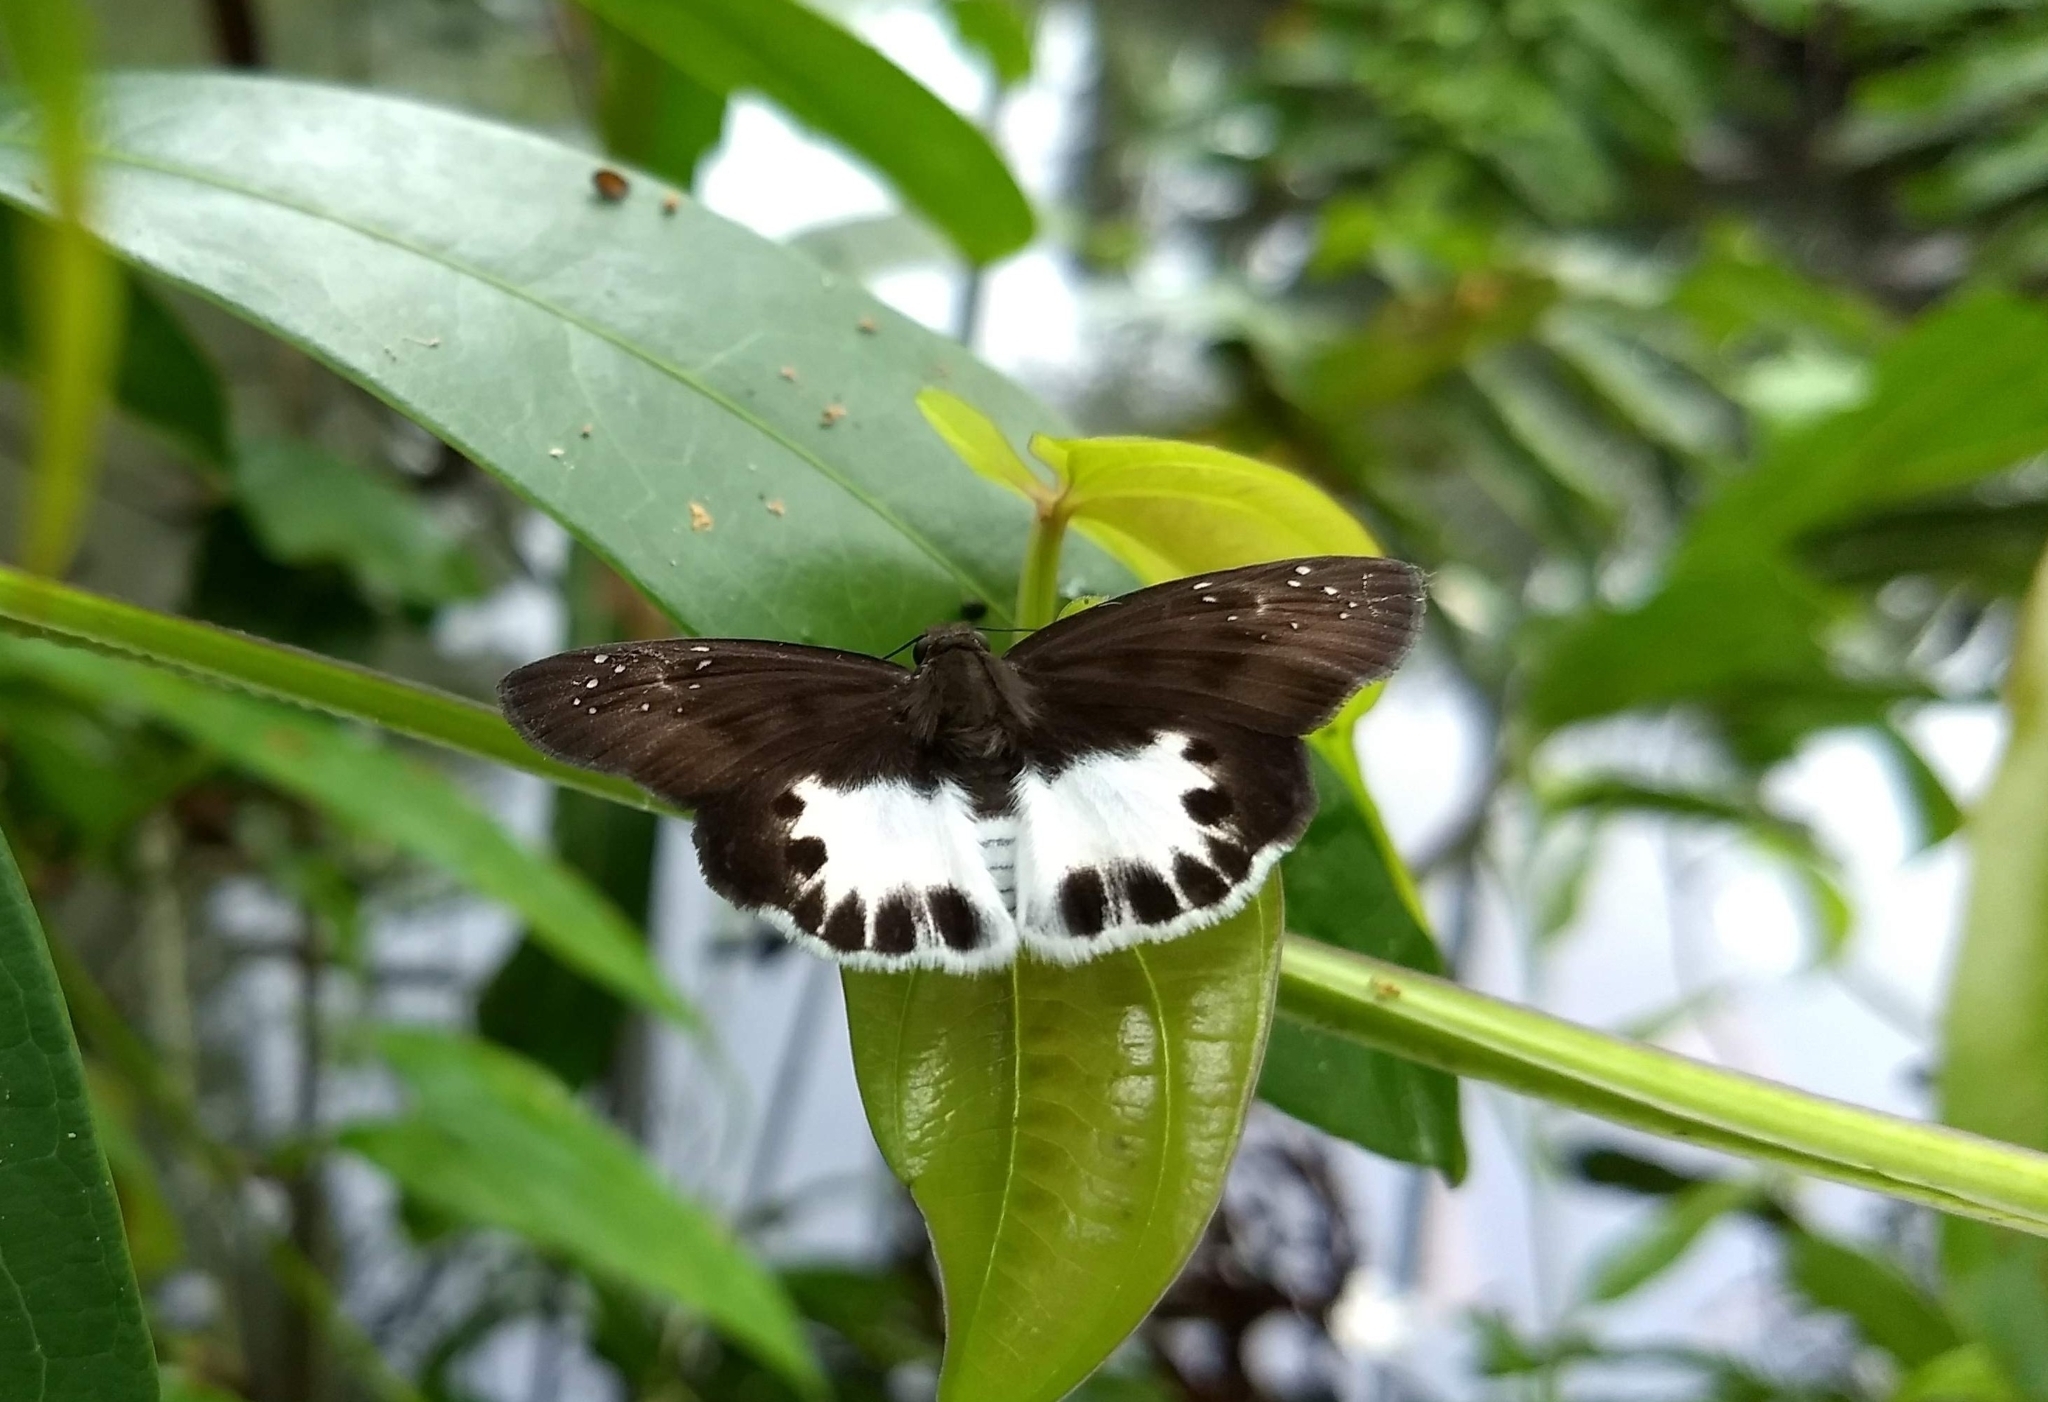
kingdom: Animalia
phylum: Arthropoda
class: Insecta
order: Lepidoptera
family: Hesperiidae
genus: Tagiades
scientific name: Tagiades litigiosa
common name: Water snow flat
